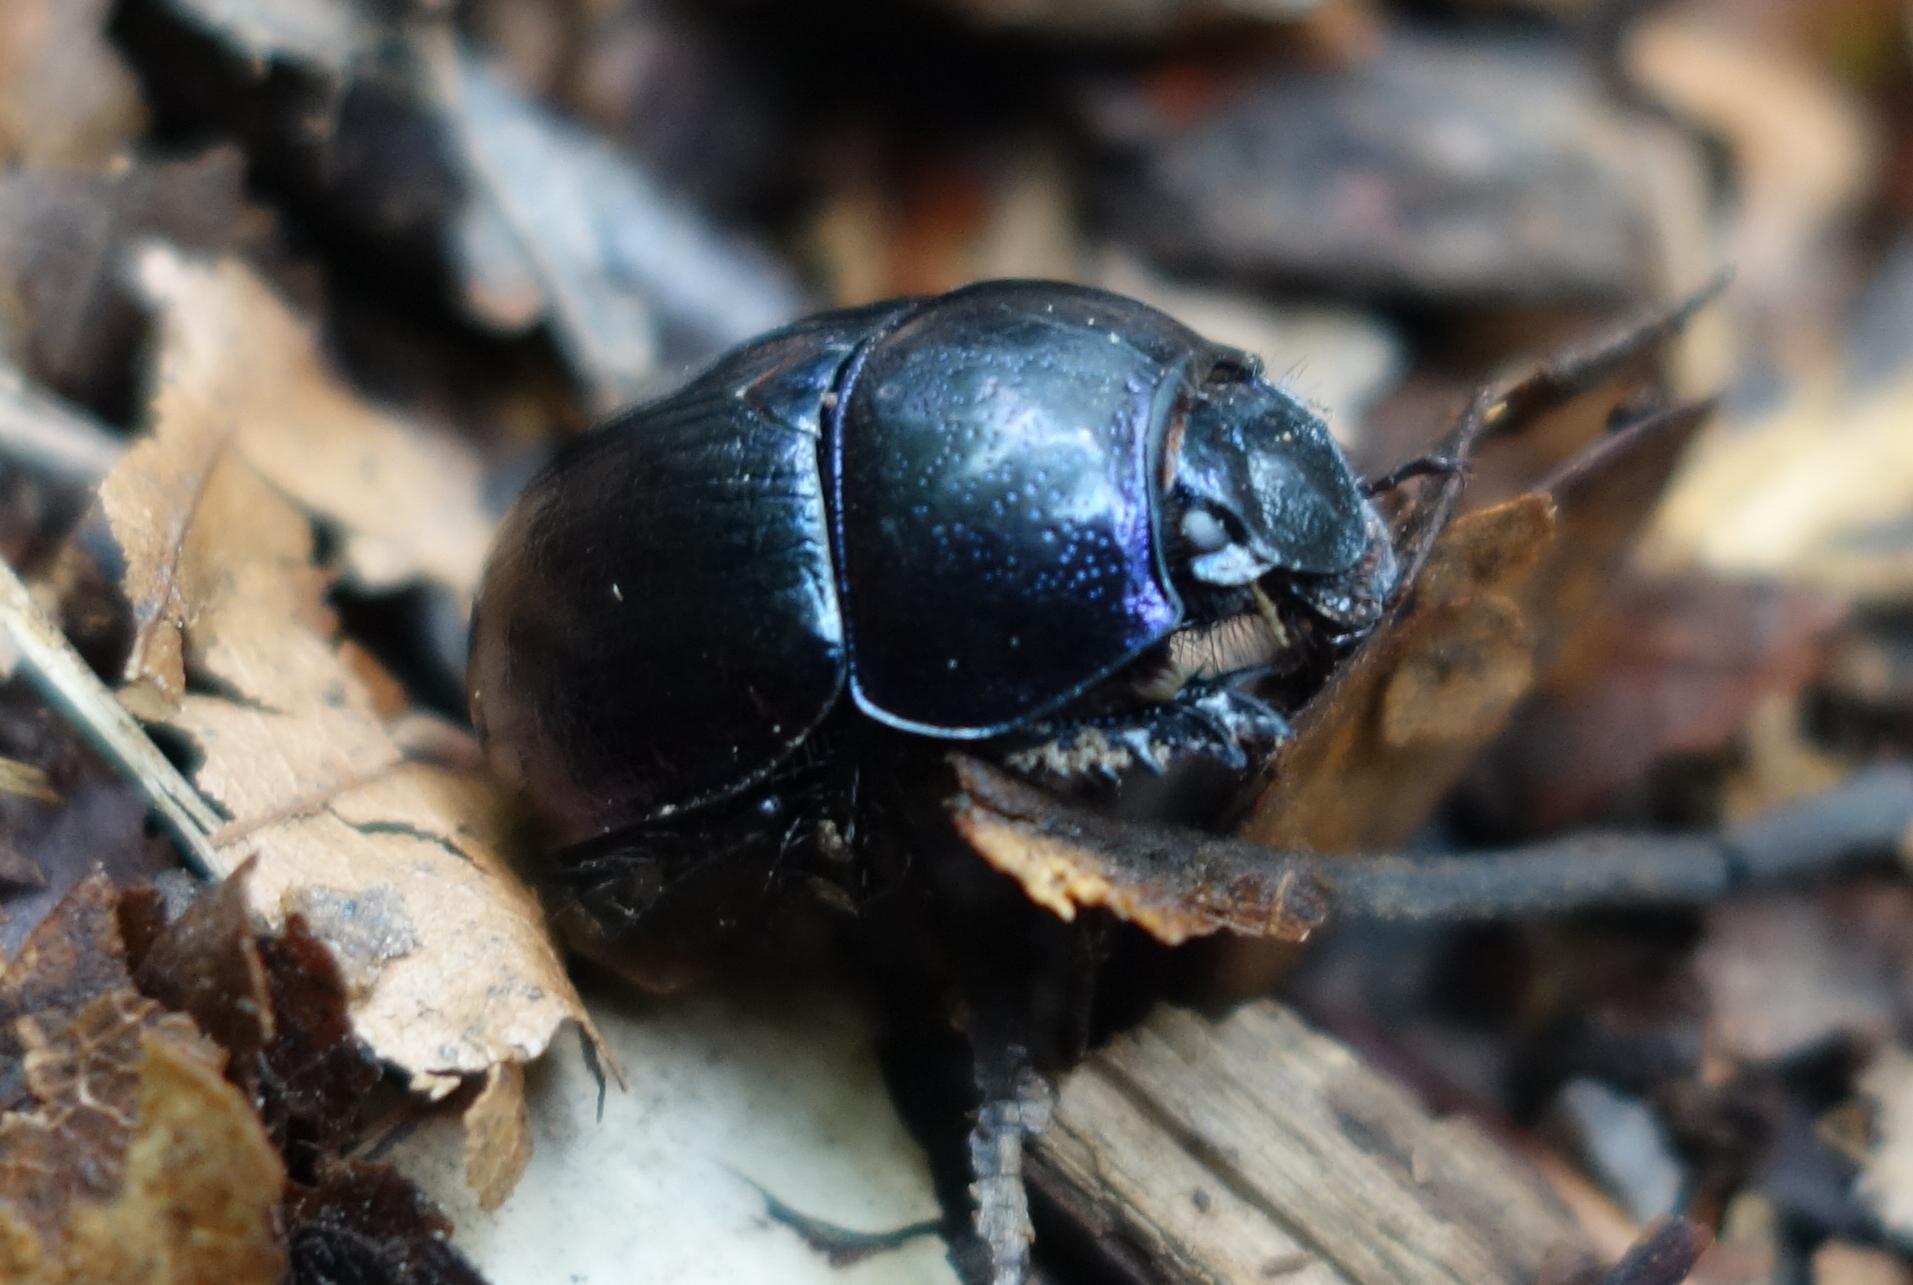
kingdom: Animalia
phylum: Arthropoda
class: Insecta
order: Coleoptera
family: Geotrupidae
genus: Anoplotrupes
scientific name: Anoplotrupes stercorosus
